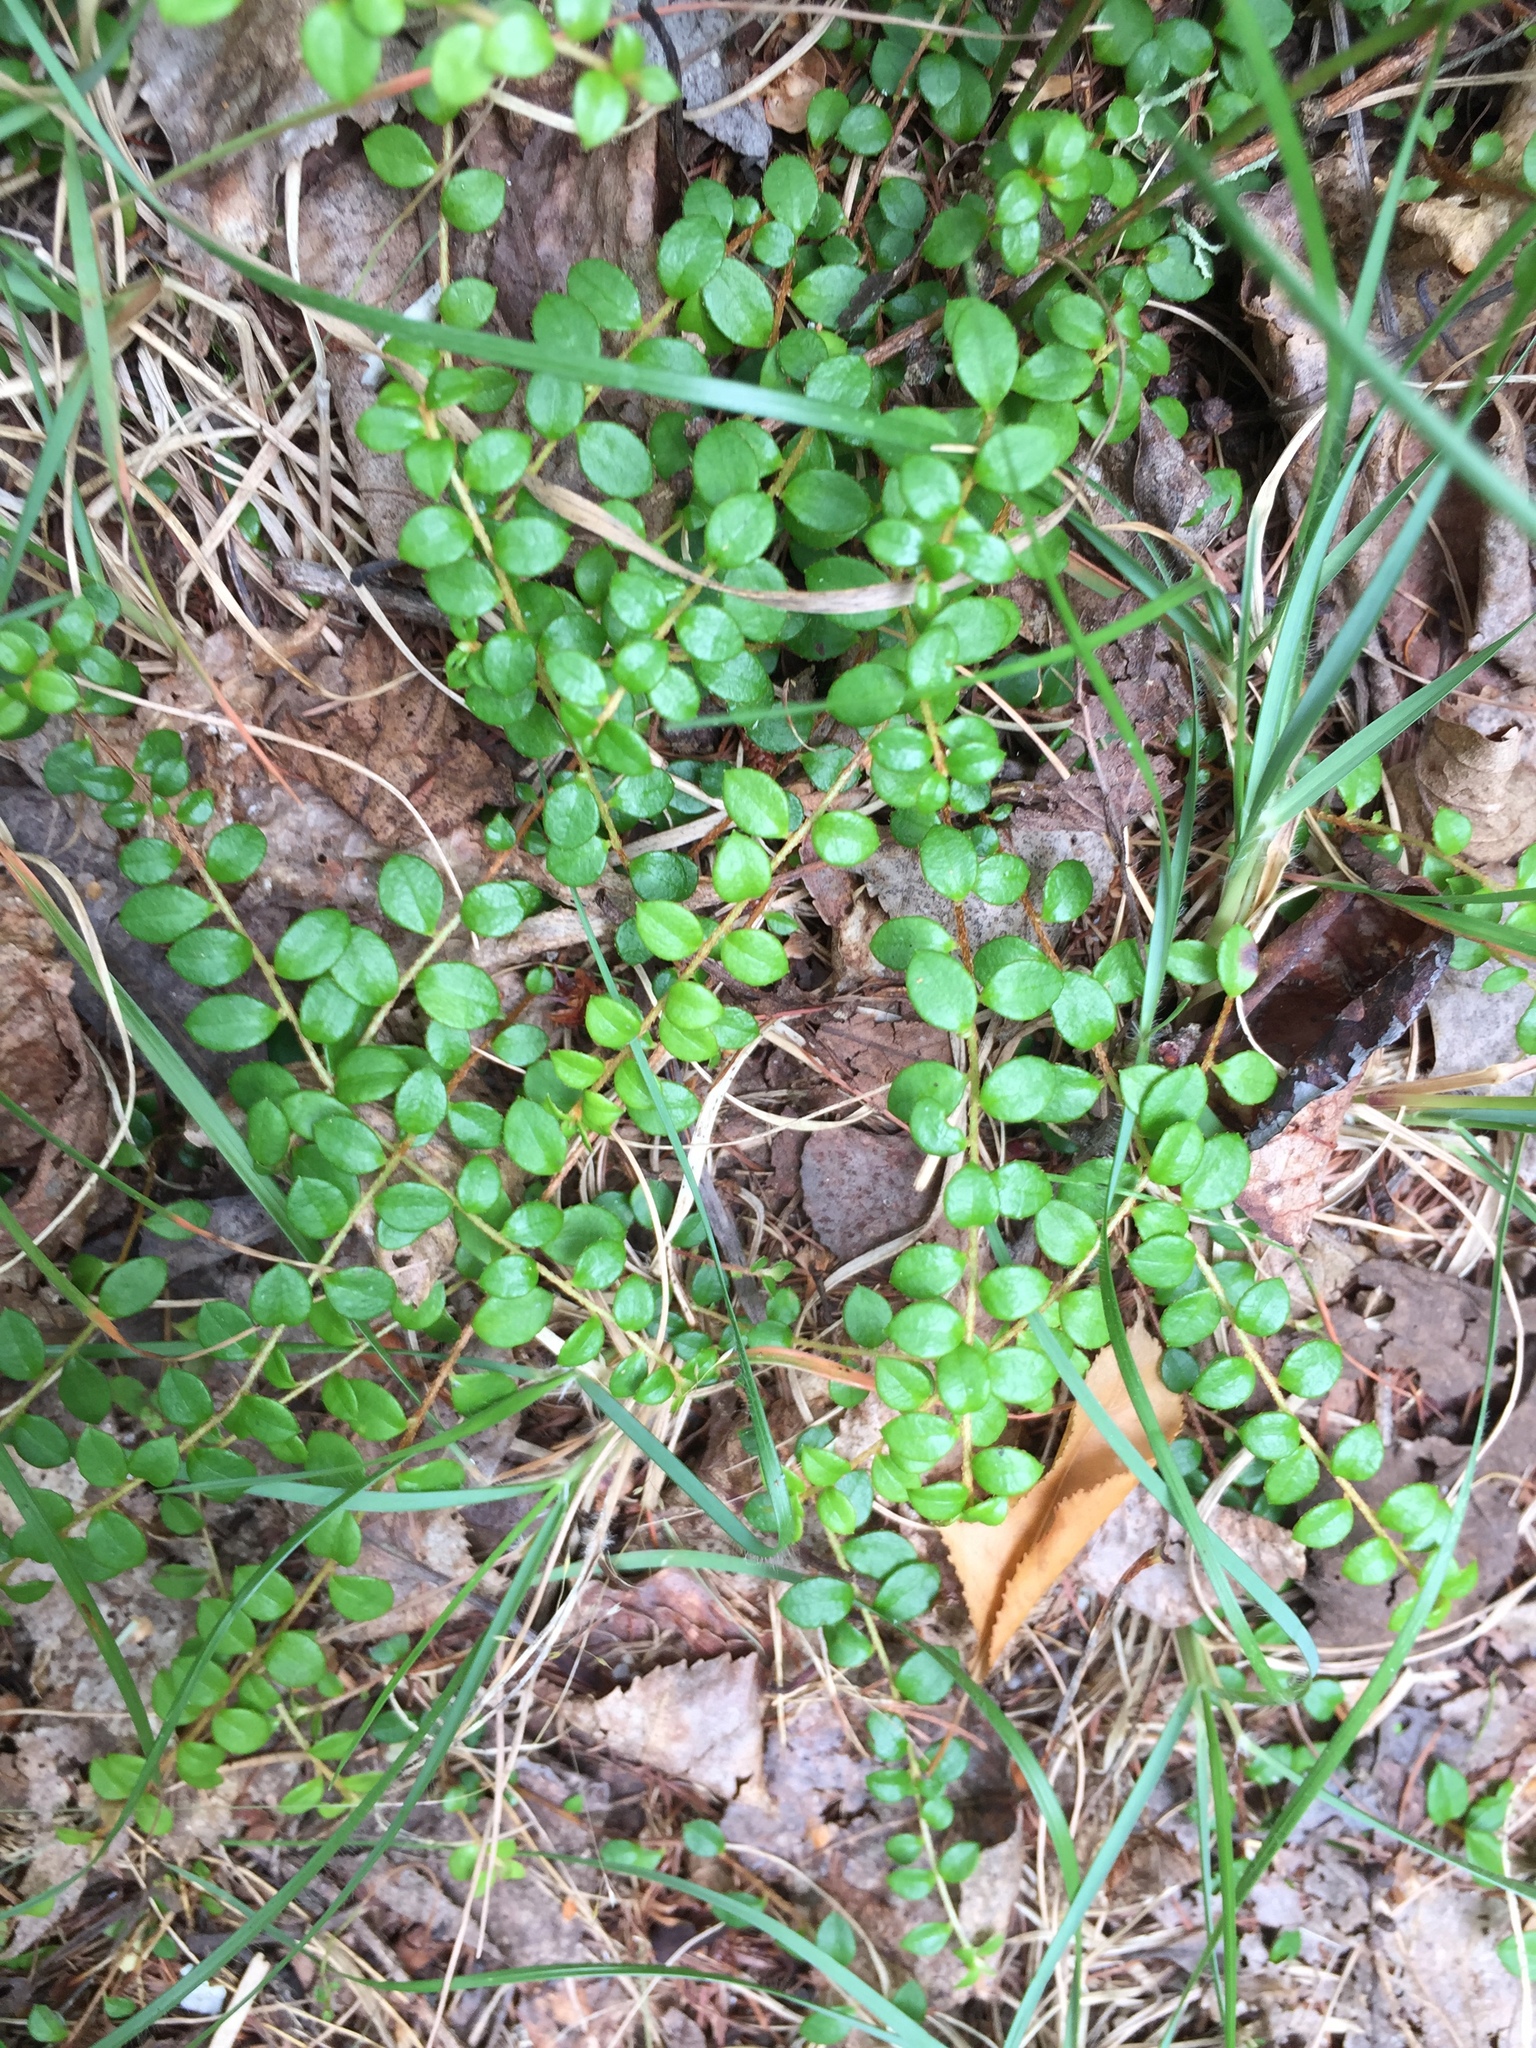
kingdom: Plantae
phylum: Tracheophyta
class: Magnoliopsida
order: Ericales
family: Ericaceae
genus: Gaultheria
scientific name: Gaultheria hispidula
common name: Cancer wintergreen
